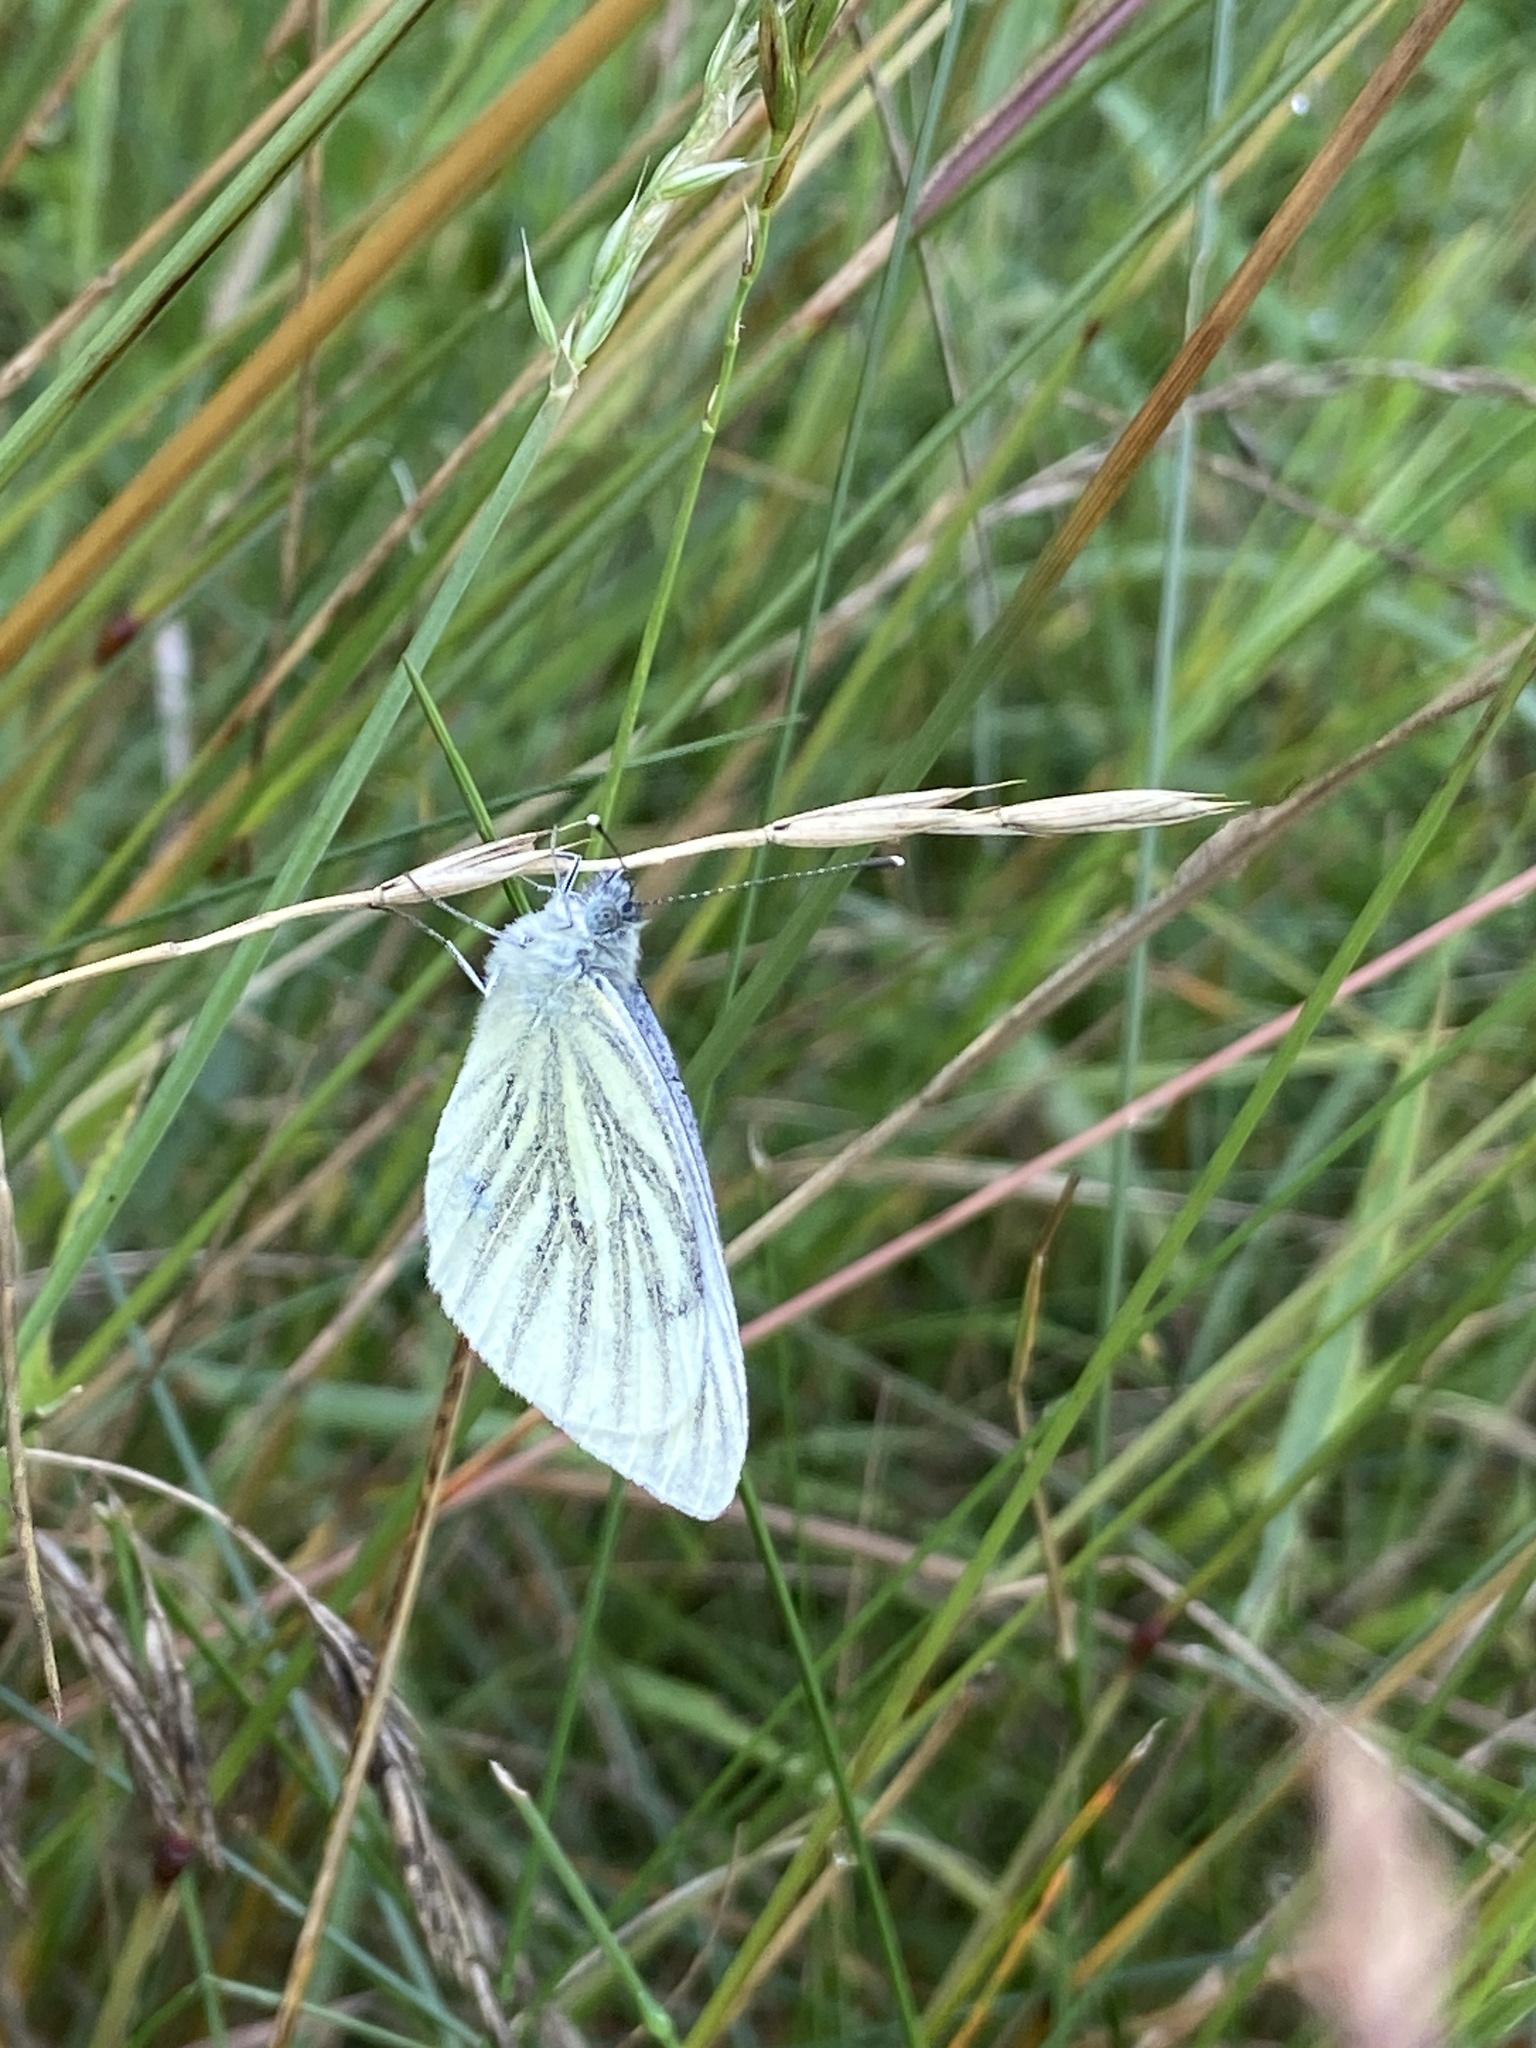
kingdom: Animalia
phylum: Arthropoda
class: Insecta
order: Lepidoptera
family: Pieridae
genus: Pieris
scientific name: Pieris napi
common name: Green-veined white
